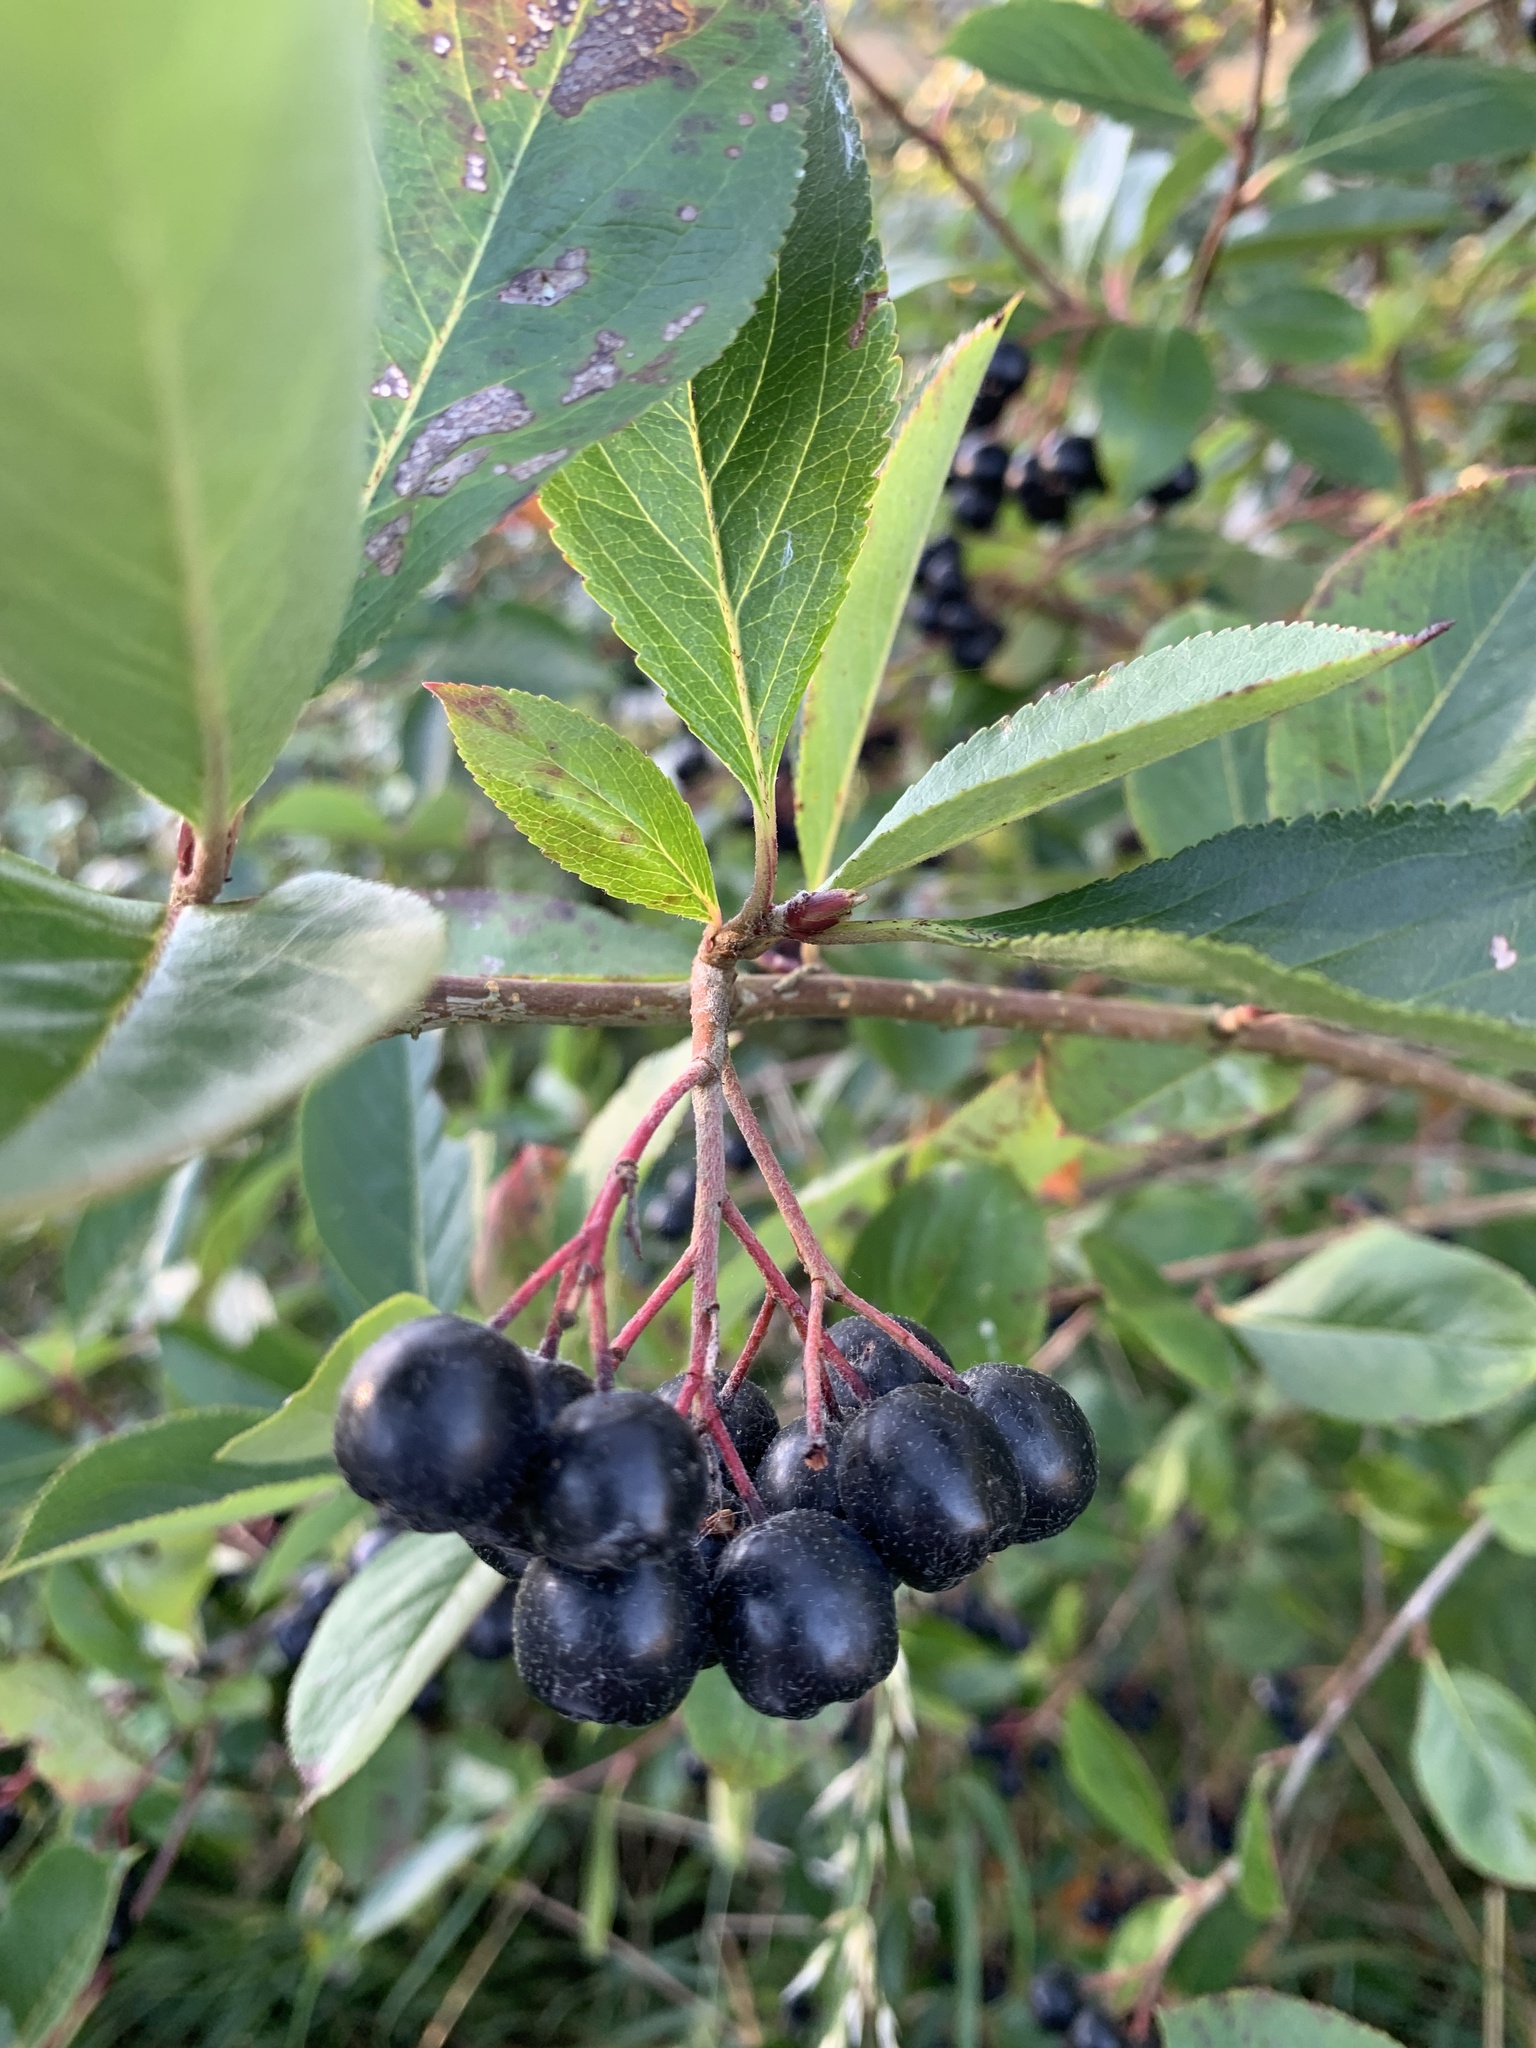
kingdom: Plantae
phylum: Tracheophyta
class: Magnoliopsida
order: Rosales
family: Rosaceae
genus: Aronia
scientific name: Aronia melanocarpa
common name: Black chokeberry
